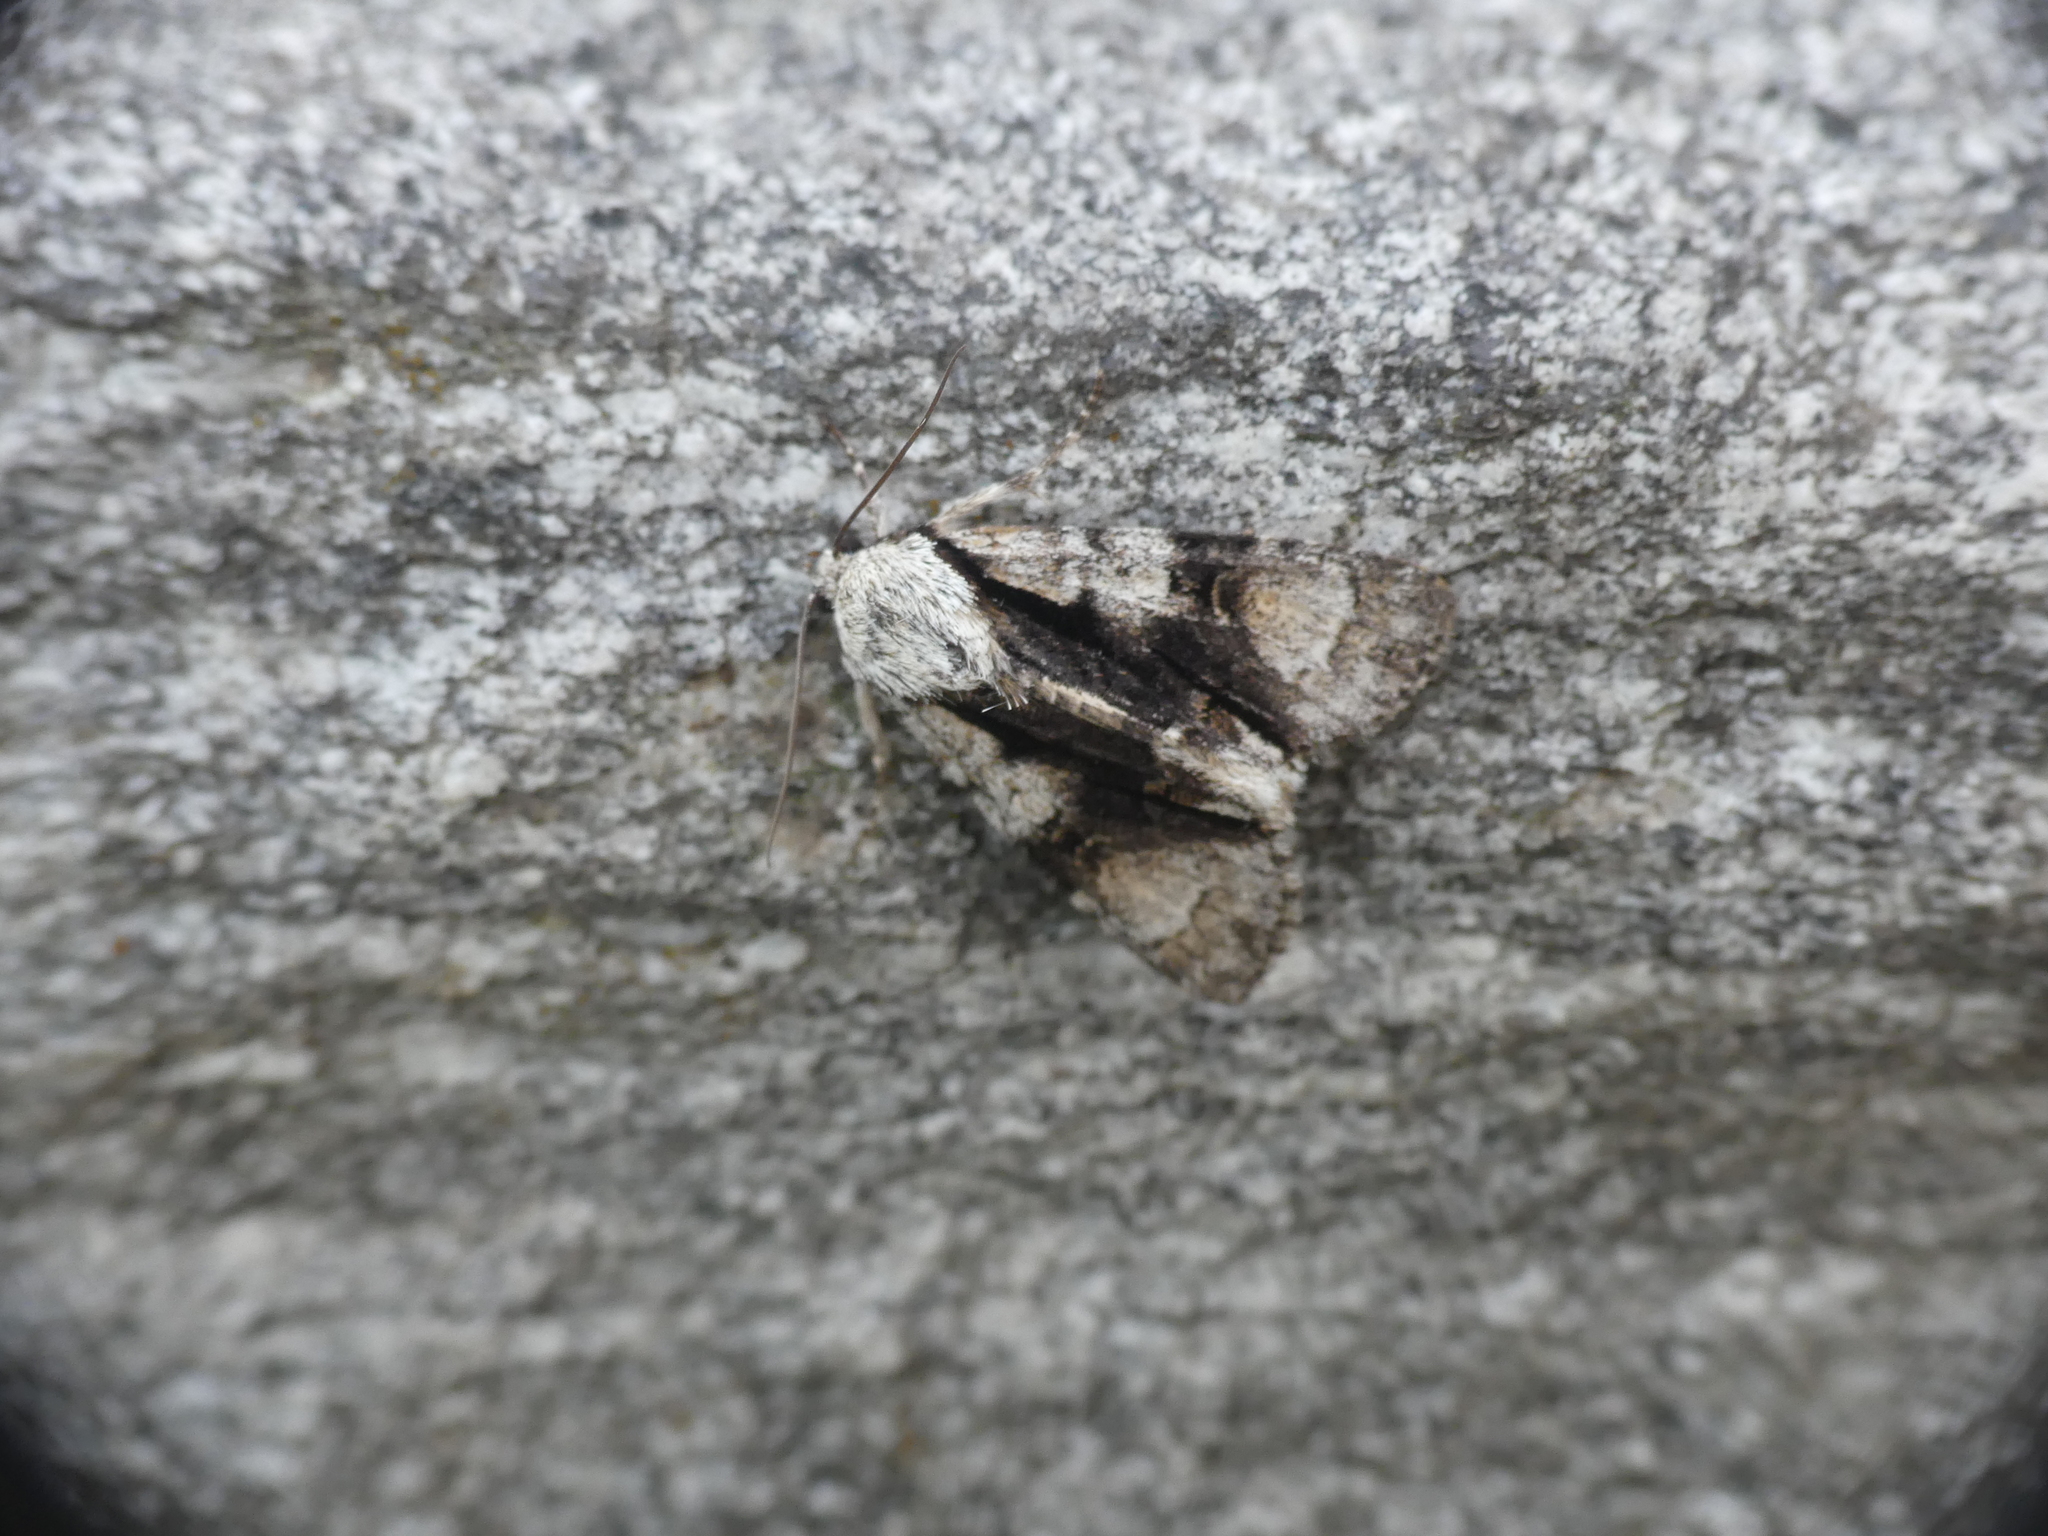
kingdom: Animalia
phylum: Arthropoda
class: Insecta
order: Lepidoptera
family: Noctuidae
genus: Acronicta
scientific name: Acronicta alni
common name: Alder moth
